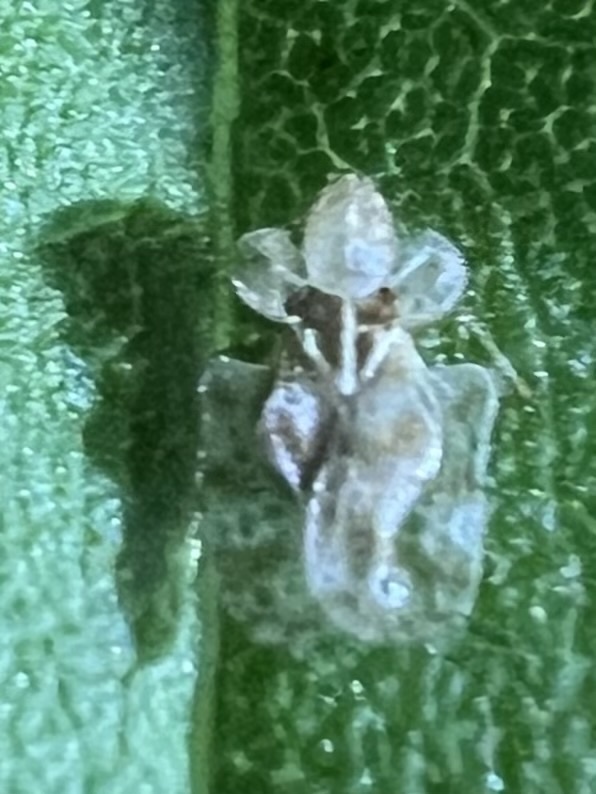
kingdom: Animalia
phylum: Arthropoda
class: Insecta
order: Hemiptera
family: Tingidae
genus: Corythucha
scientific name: Corythucha marmorata
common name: Chrysanthemum lace bug
